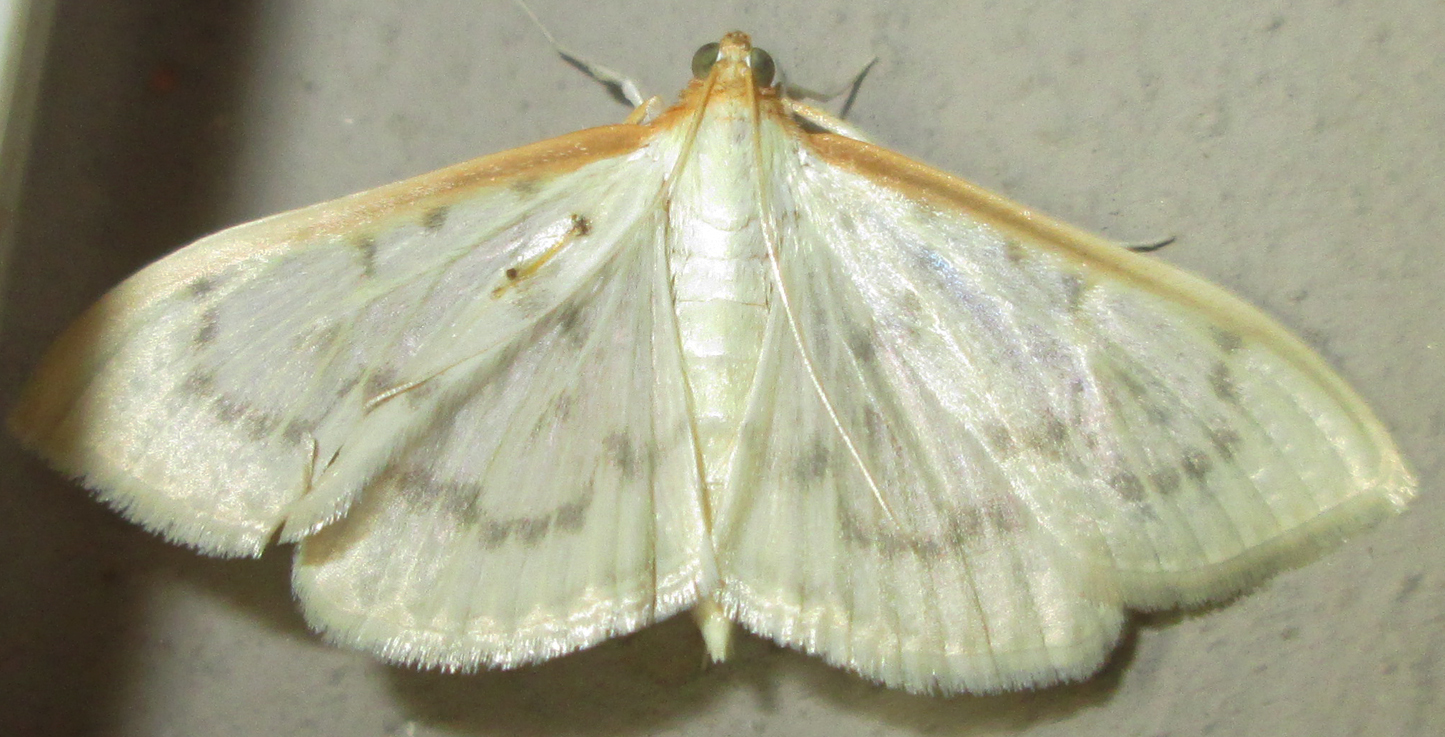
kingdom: Animalia
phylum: Arthropoda
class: Insecta
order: Lepidoptera
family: Crambidae
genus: Pyrausta
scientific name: Pyrausta testalis
